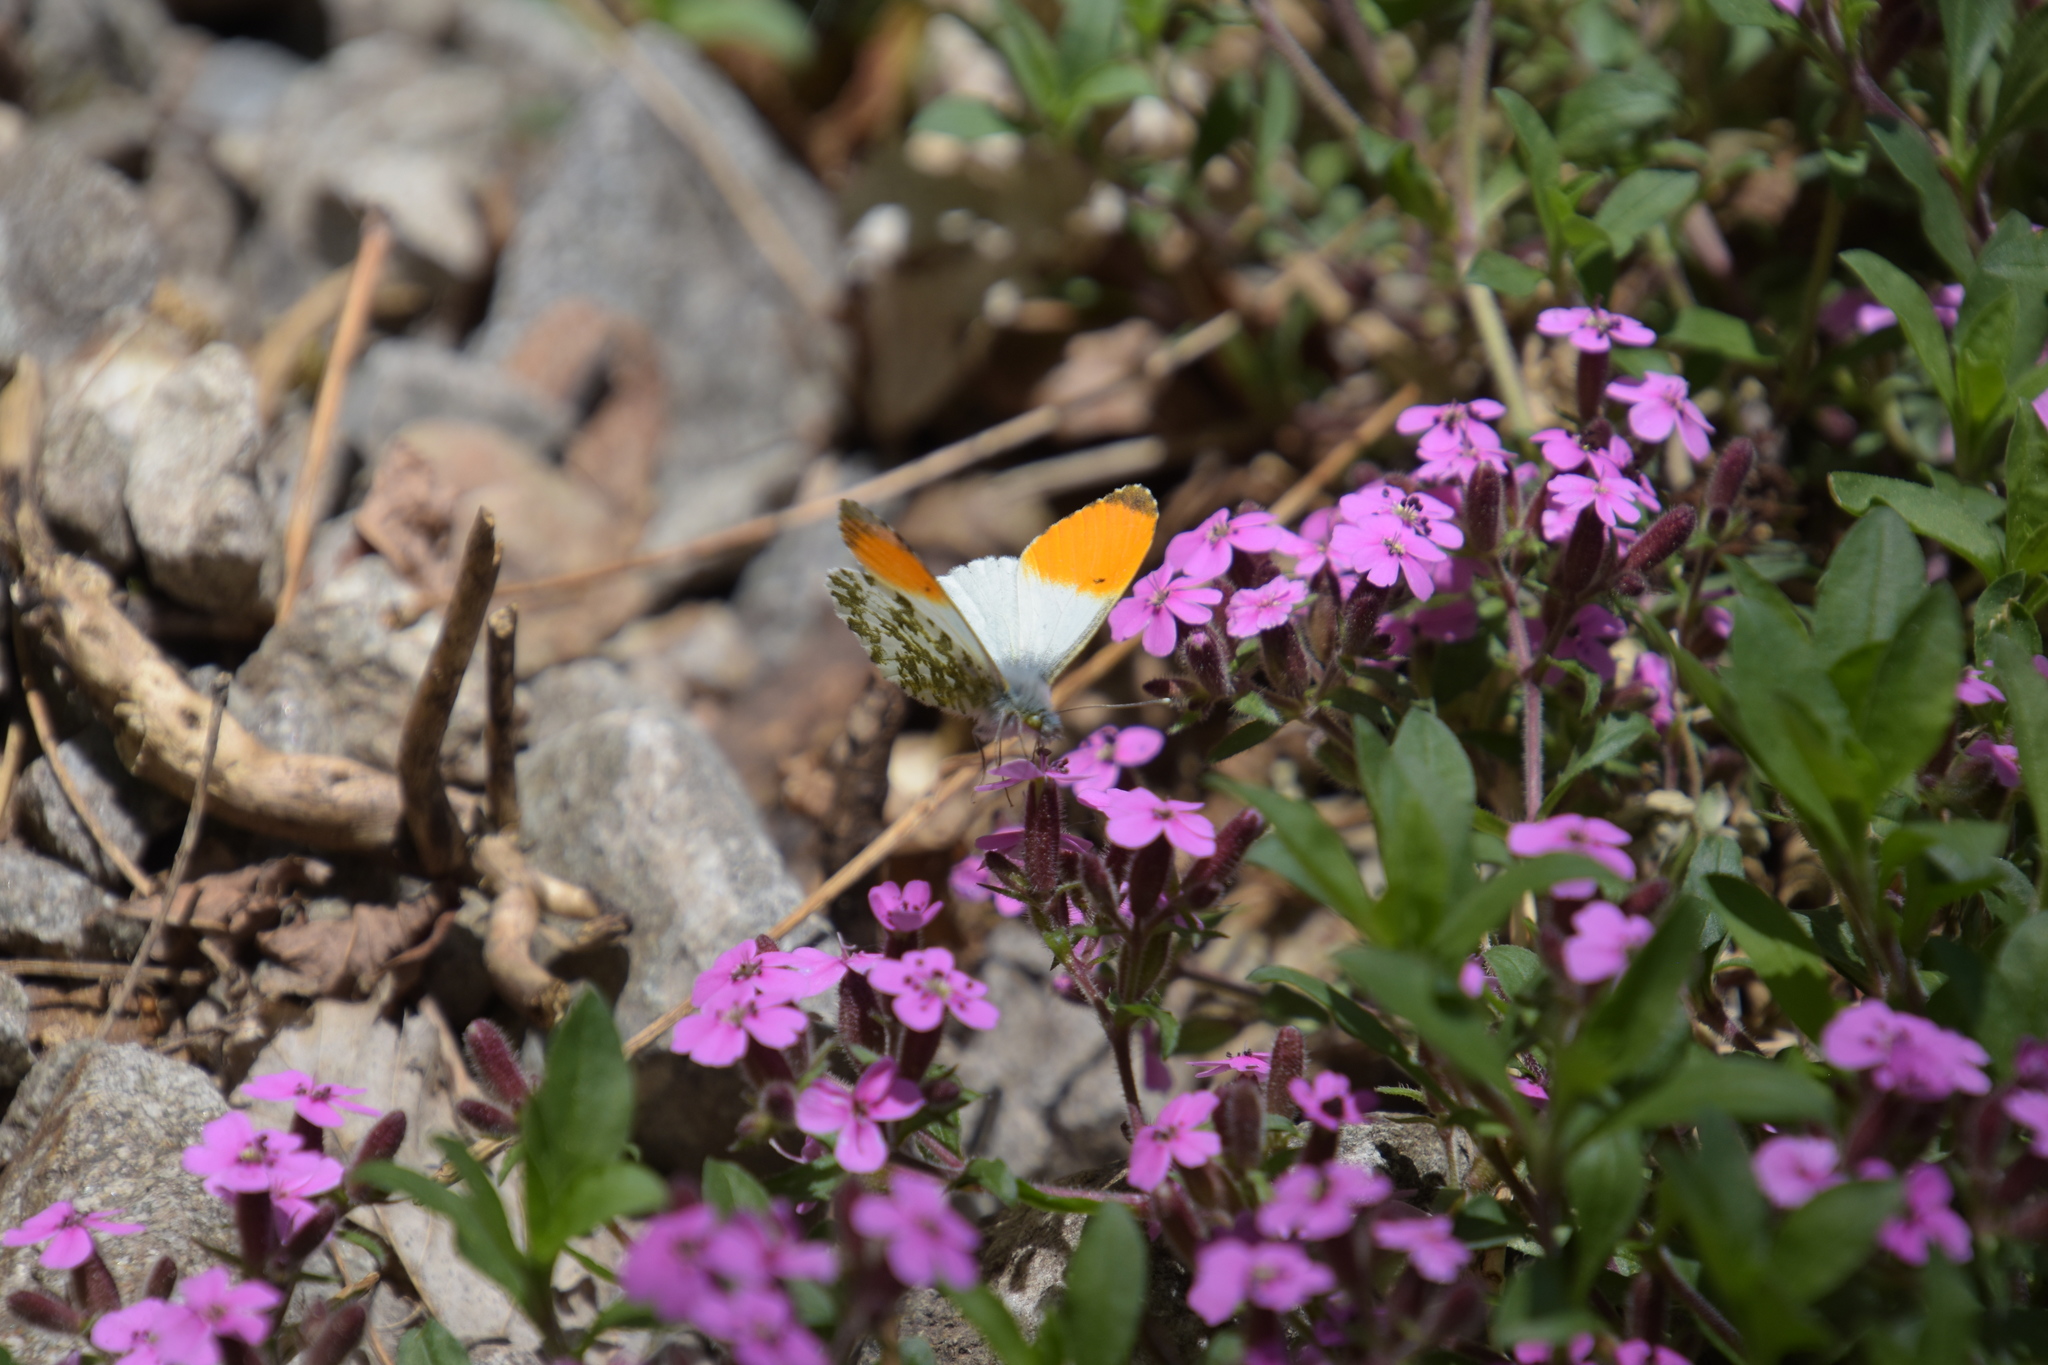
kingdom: Animalia
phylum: Arthropoda
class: Insecta
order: Lepidoptera
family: Pieridae
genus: Anthocharis
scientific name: Anthocharis cardamines
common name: Orange-tip
